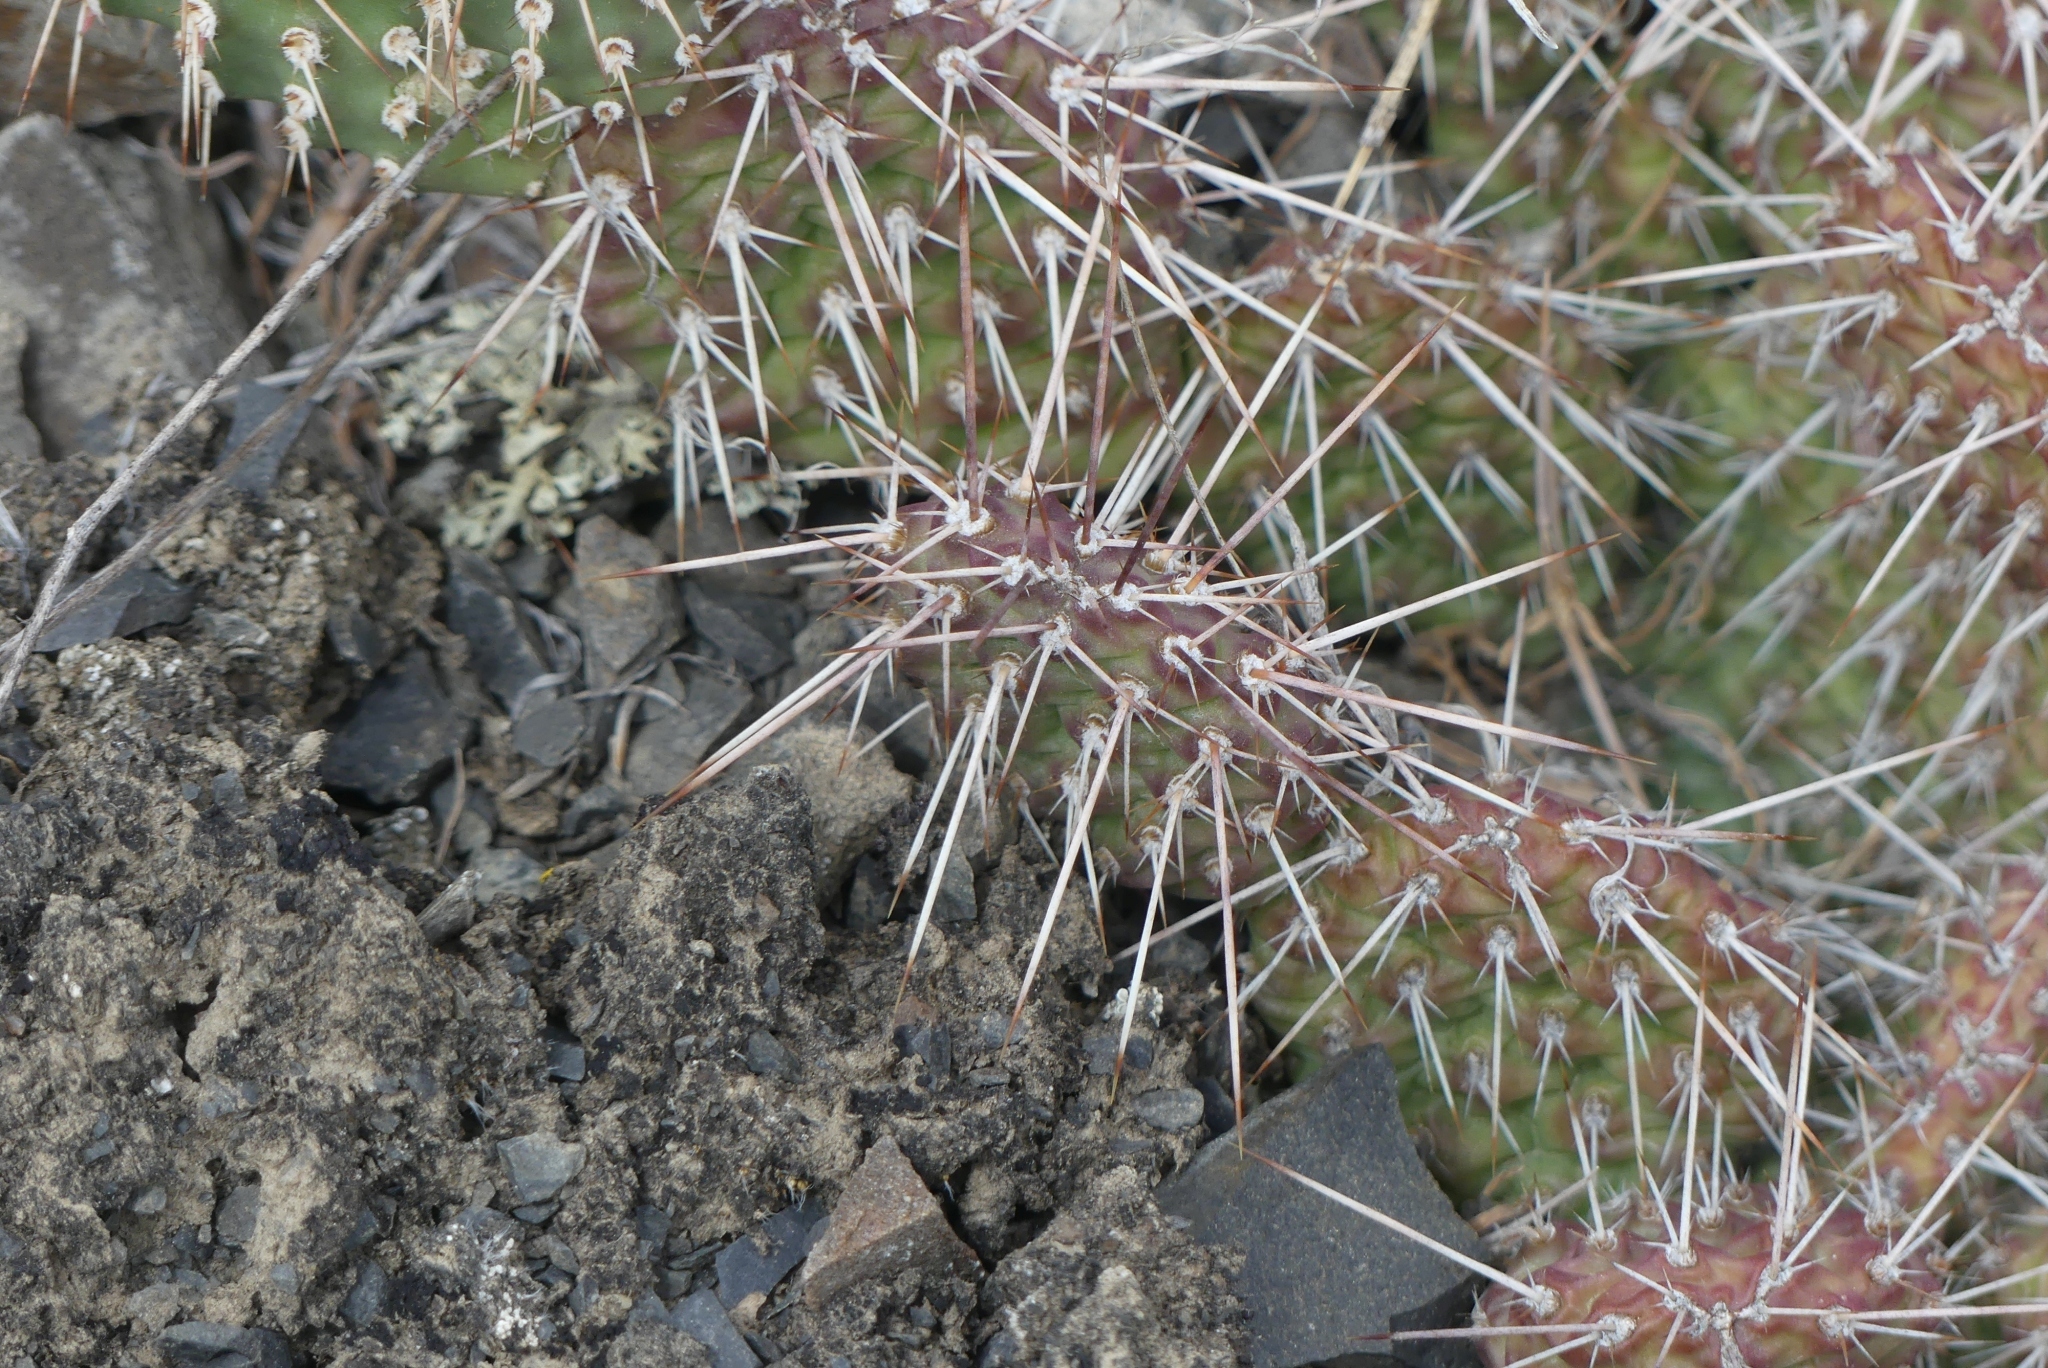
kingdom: Plantae
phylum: Tracheophyta
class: Magnoliopsida
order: Caryophyllales
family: Cactaceae
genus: Opuntia
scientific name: Opuntia columbiana
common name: Columbia prickly-pear
